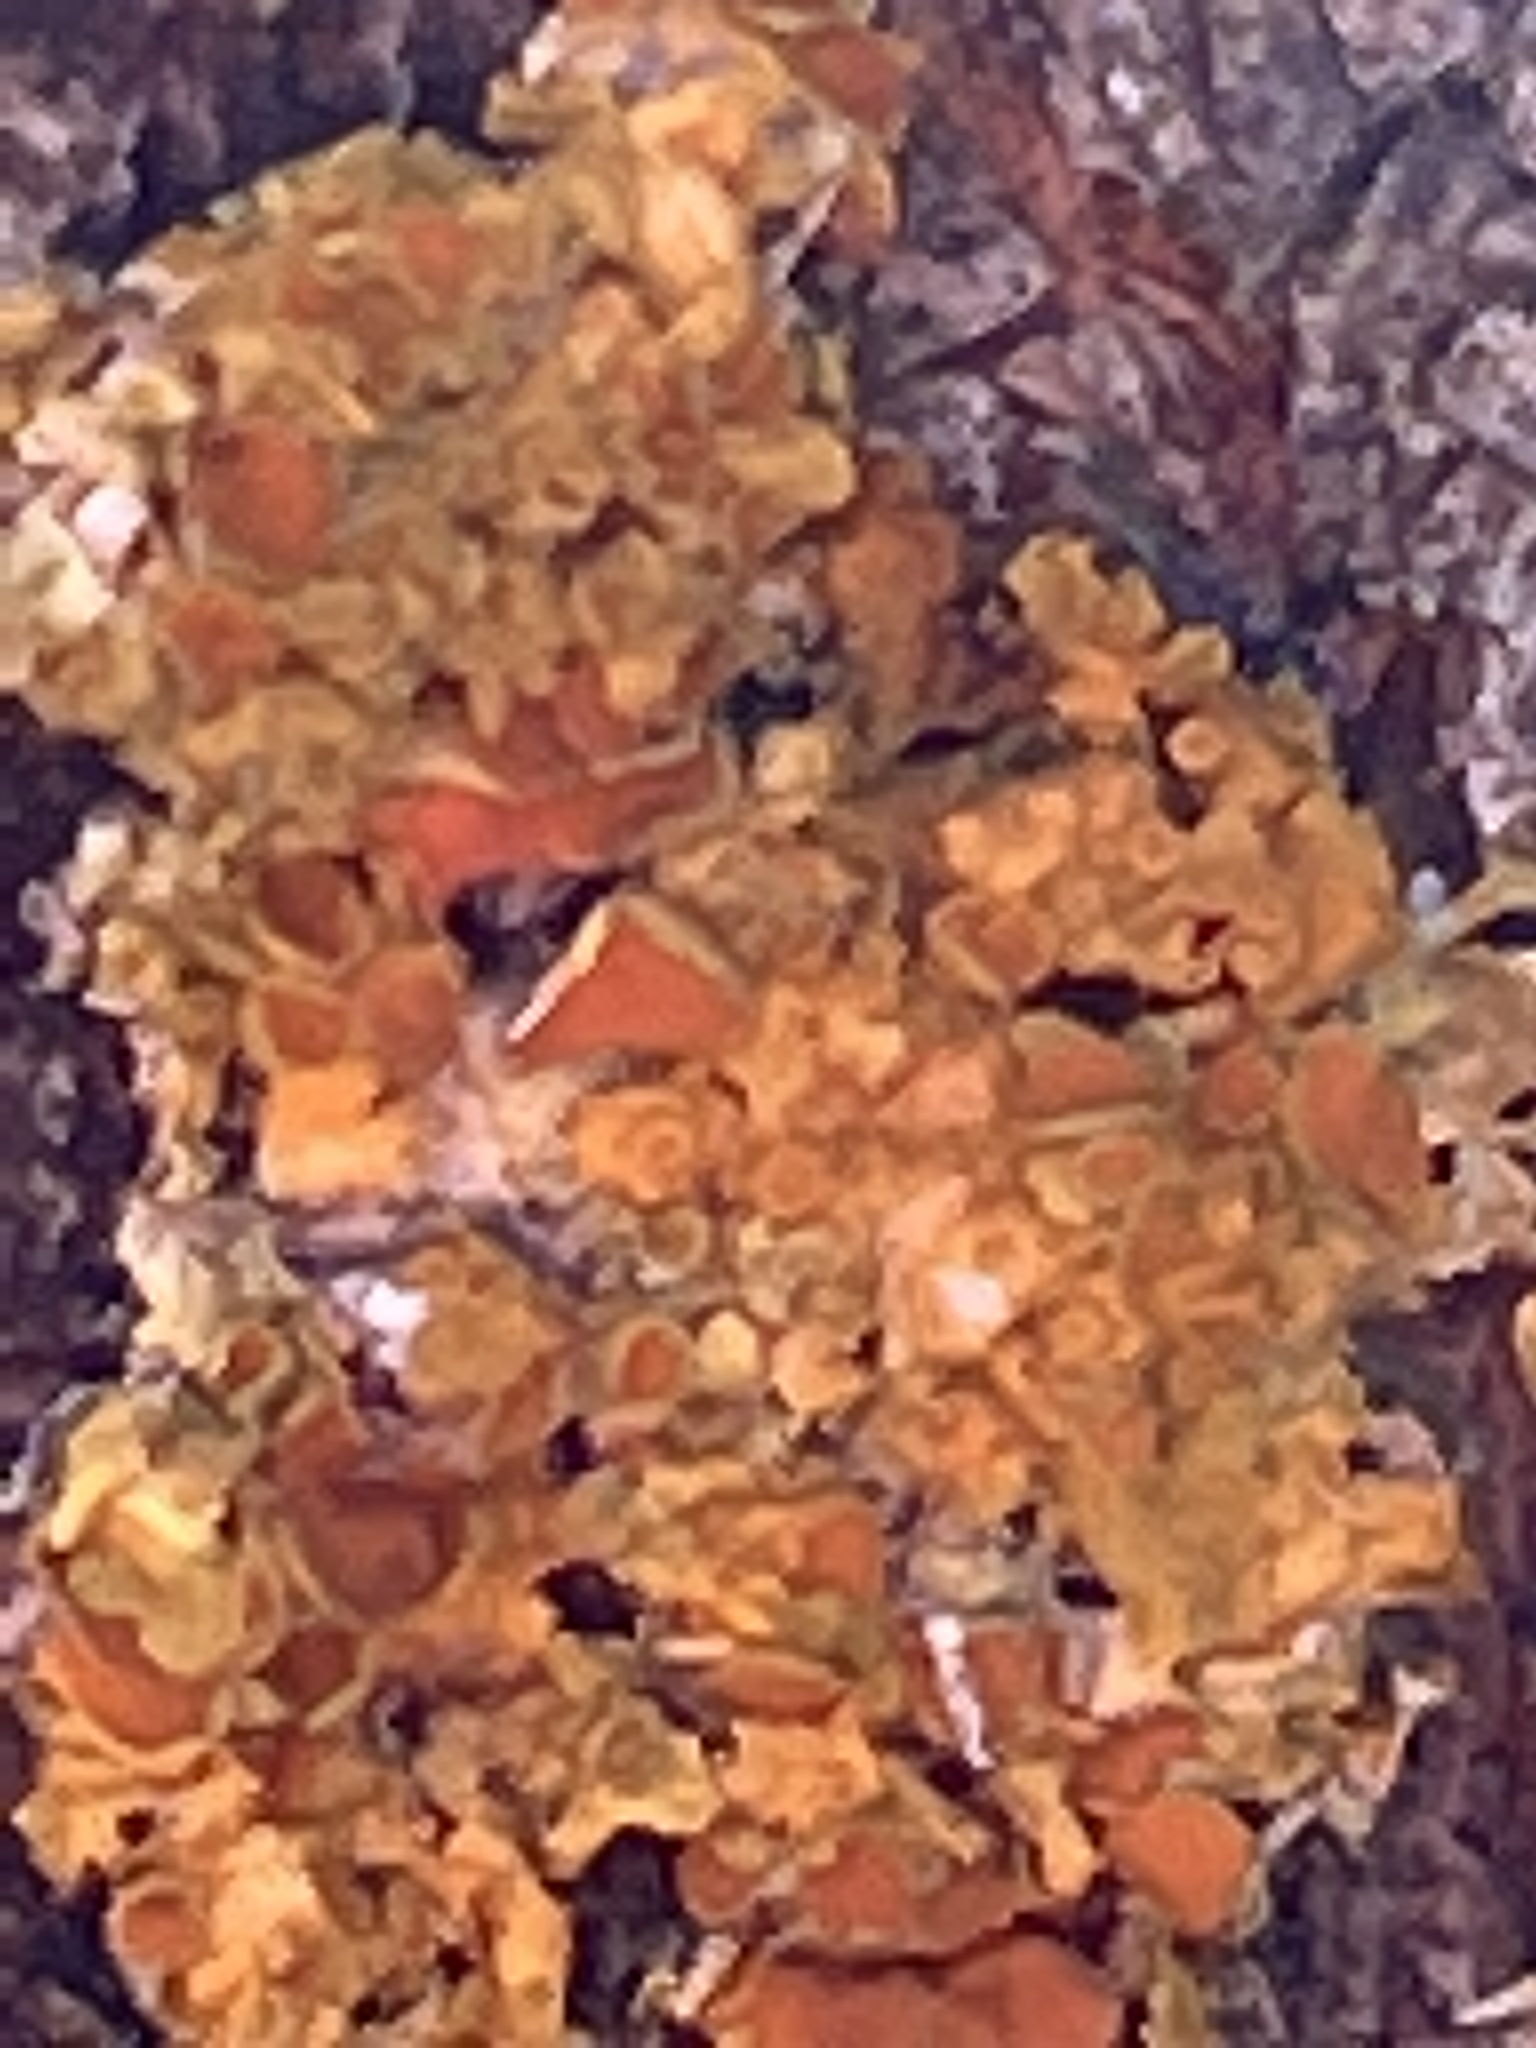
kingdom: Fungi
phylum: Ascomycota
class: Lecanoromycetes
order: Teloschistales
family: Teloschistaceae
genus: Xanthoria
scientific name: Xanthoria parietina
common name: Common orange lichen
